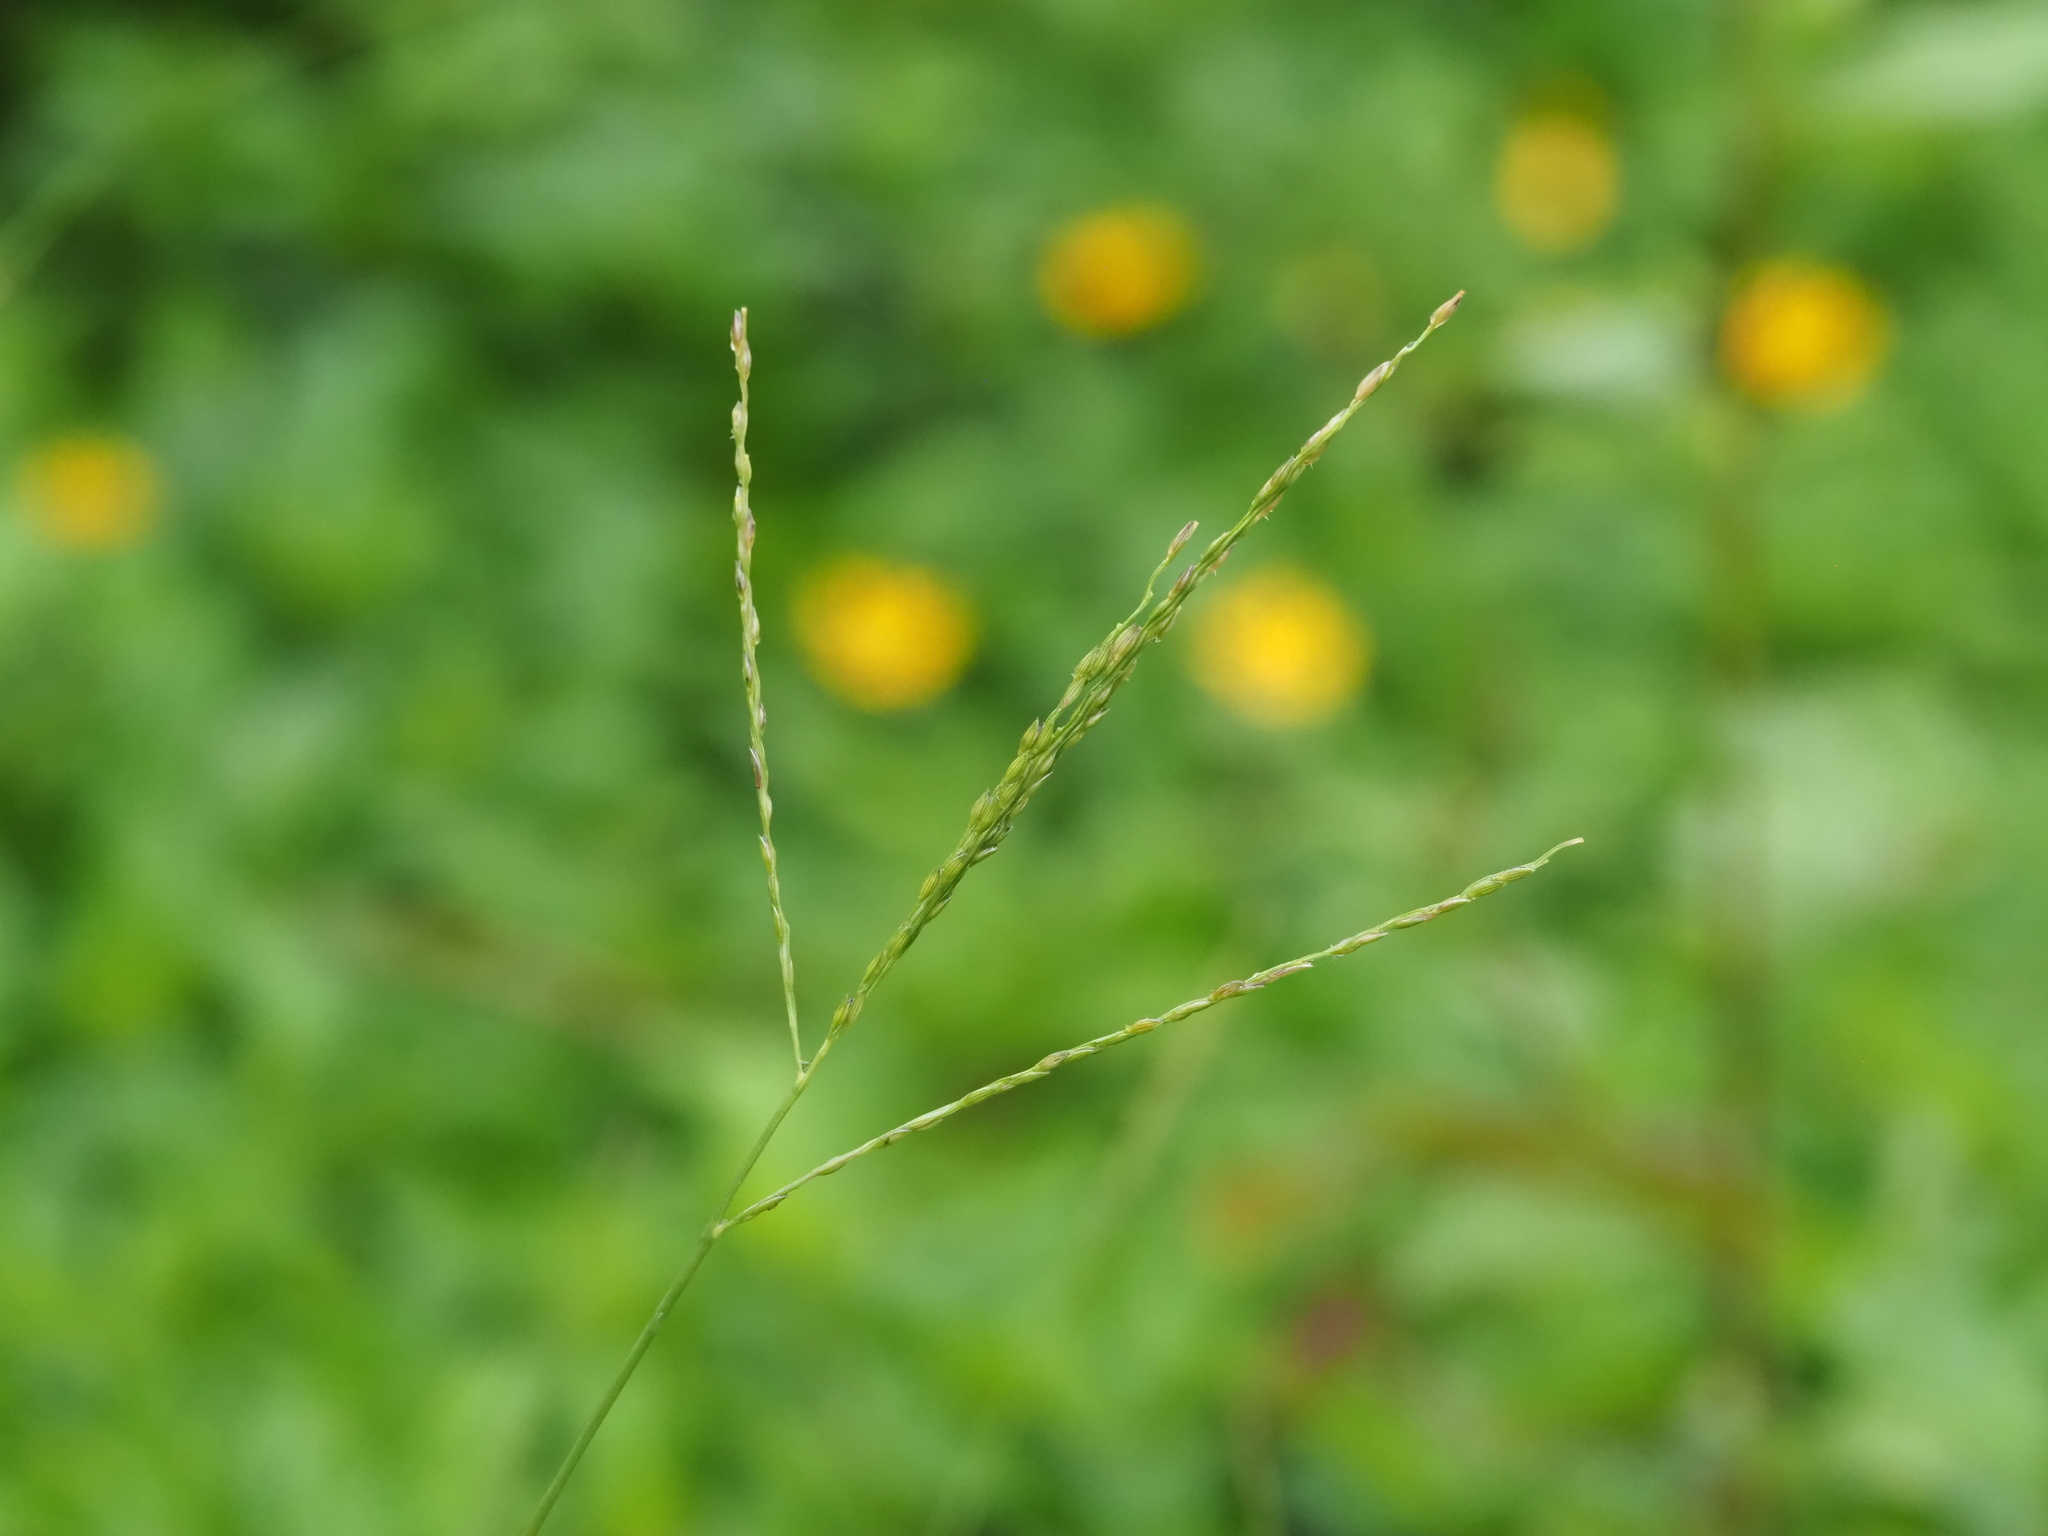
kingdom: Plantae
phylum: Tracheophyta
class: Liliopsida
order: Poales
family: Poaceae
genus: Digitaria
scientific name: Digitaria ciliaris
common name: Tropical finger-grass
